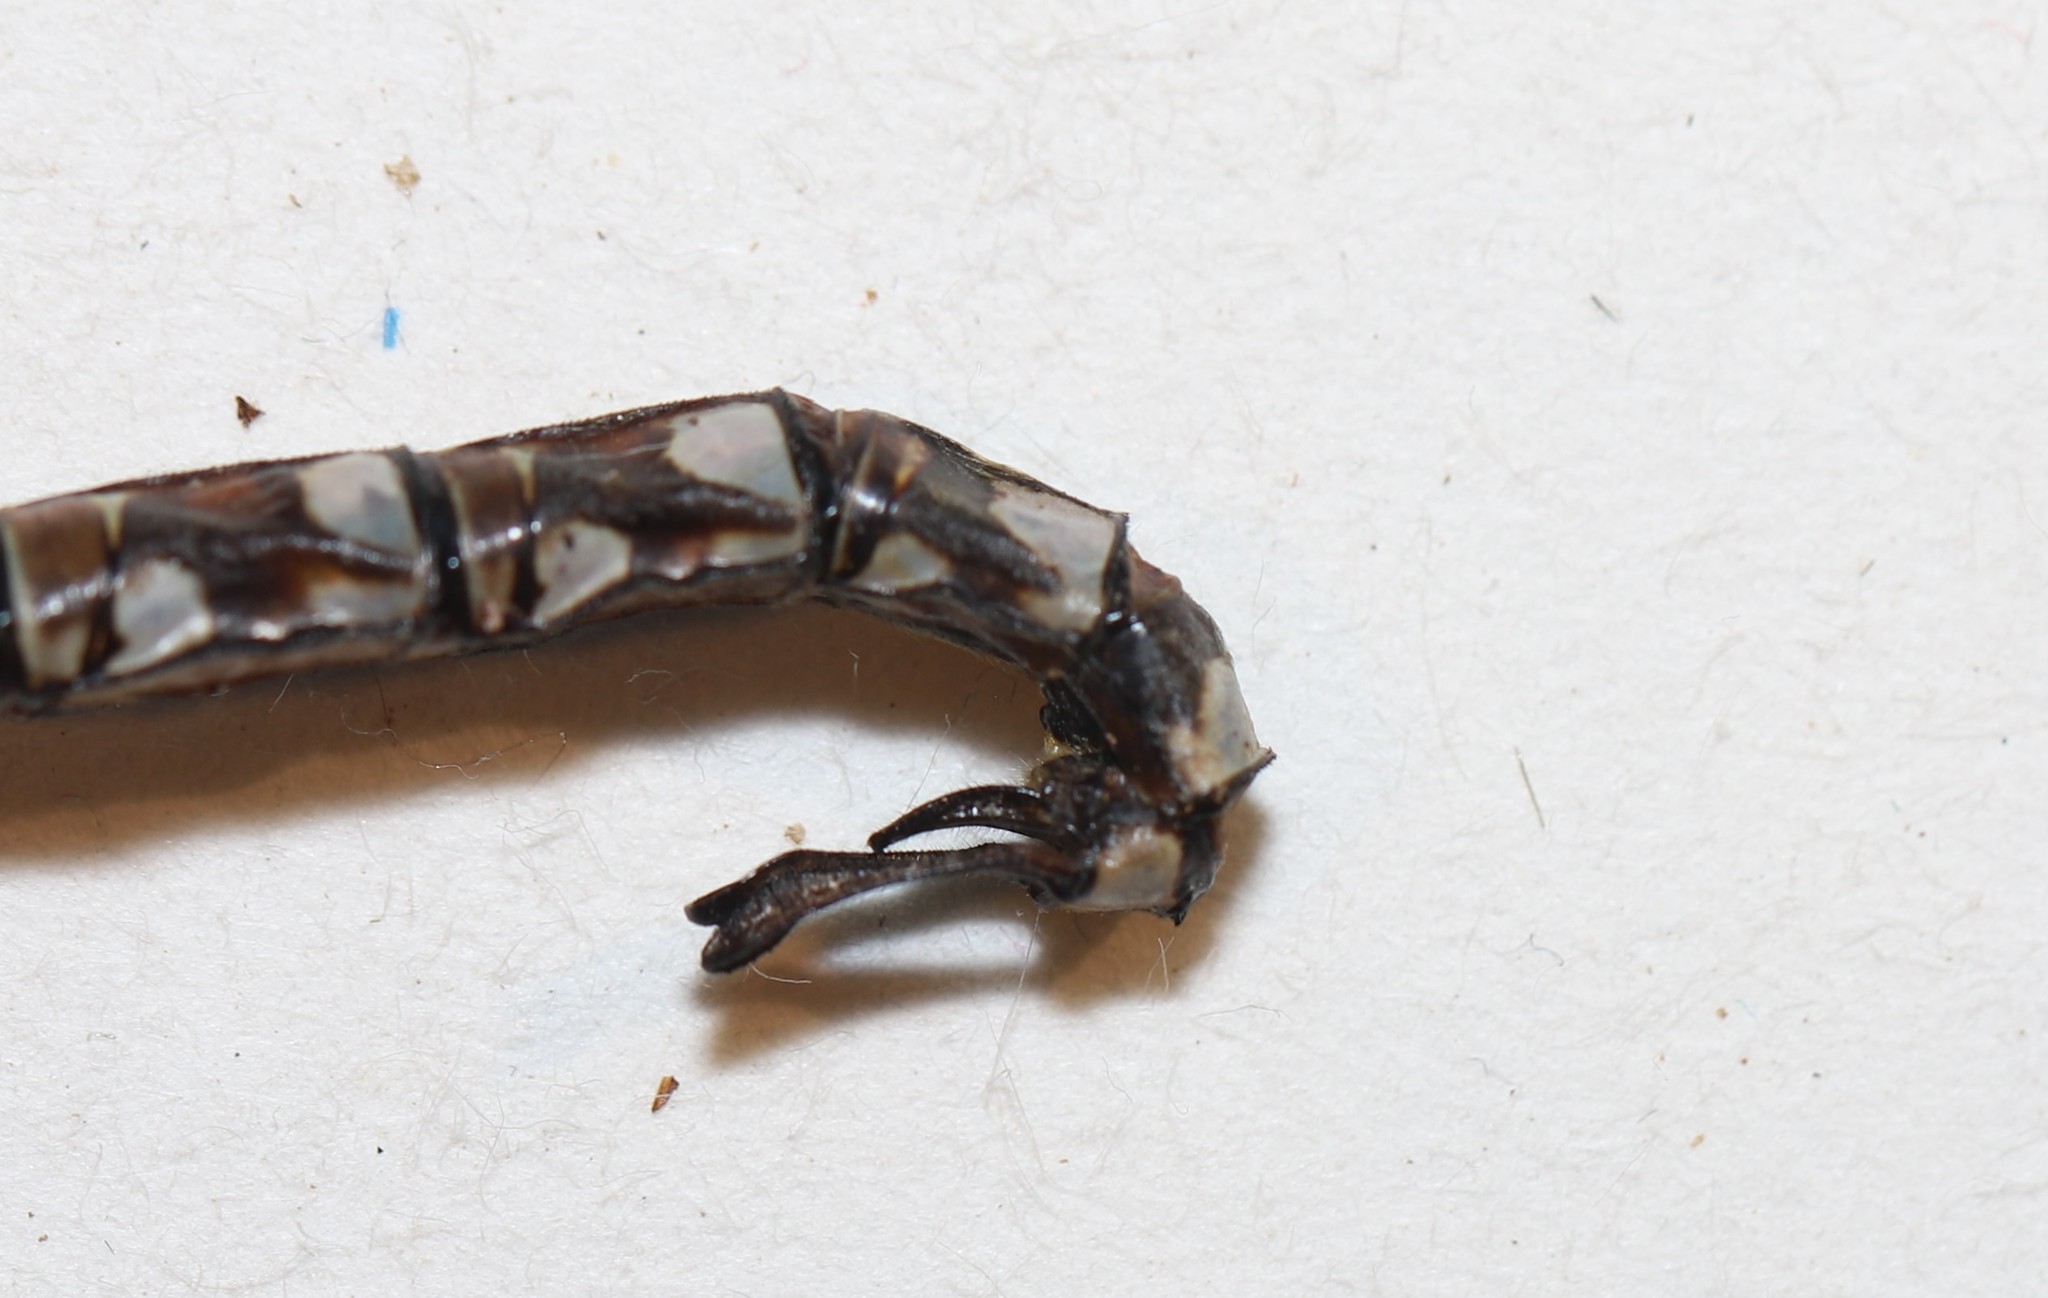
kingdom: Animalia
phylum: Arthropoda
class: Insecta
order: Odonata
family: Aeshnidae
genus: Aeshna
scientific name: Aeshna eremita
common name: Lake darner
